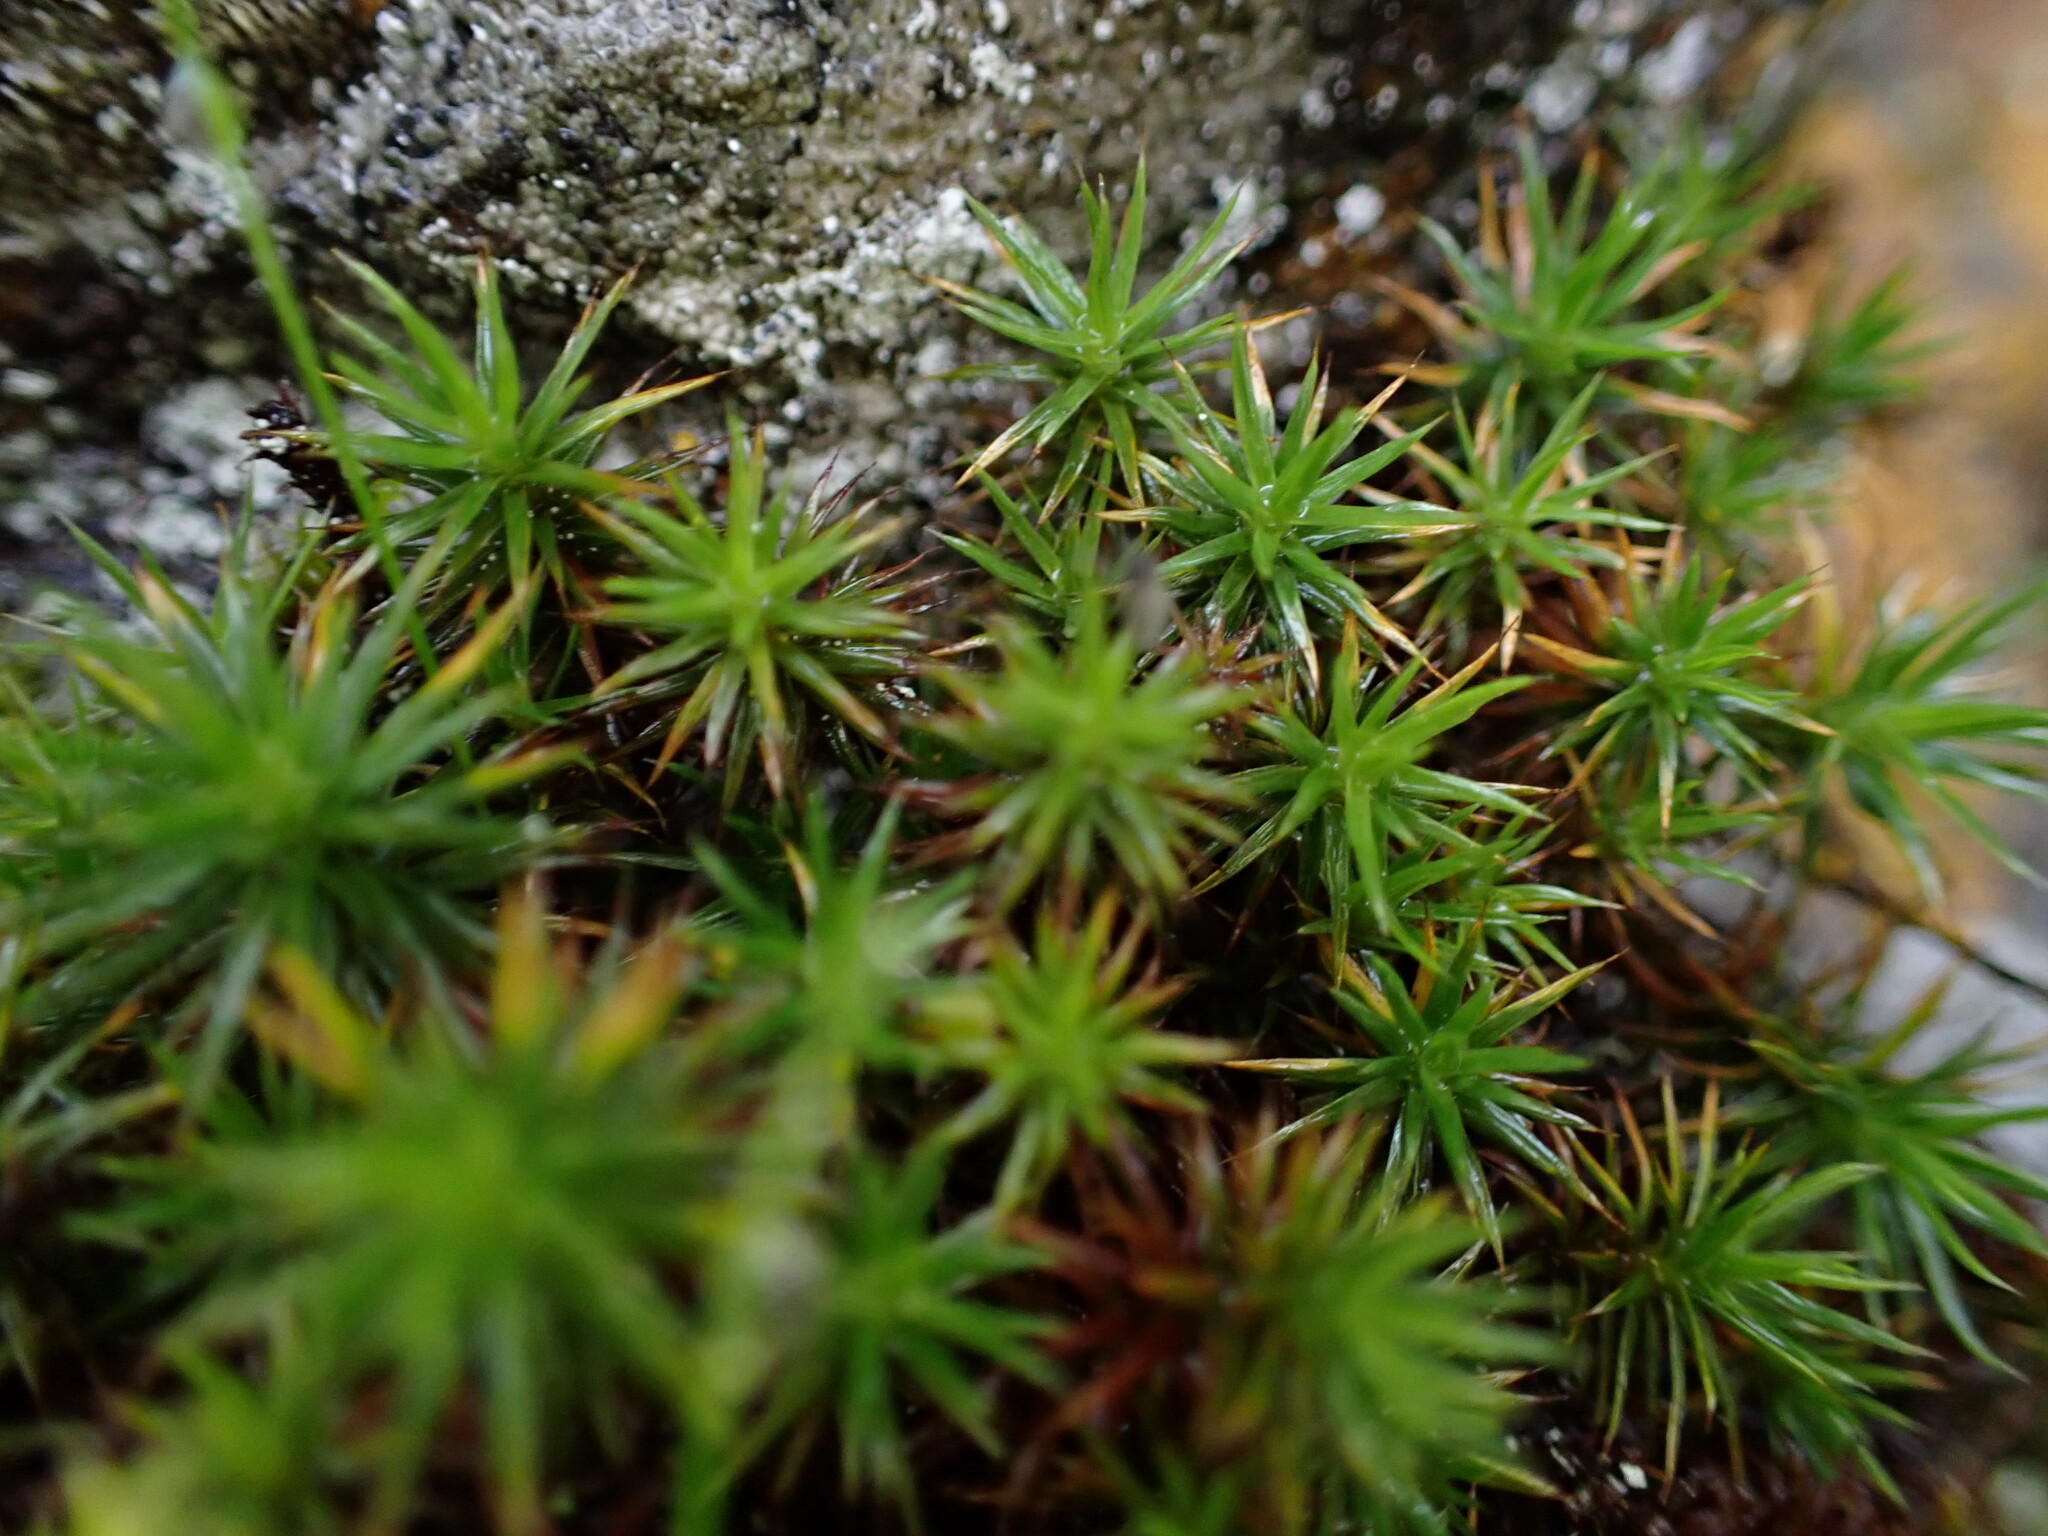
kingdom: Plantae
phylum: Bryophyta
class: Polytrichopsida
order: Polytrichales
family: Polytrichaceae
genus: Polytrichum
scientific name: Polytrichum juniperinum
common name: Juniper haircap moss
